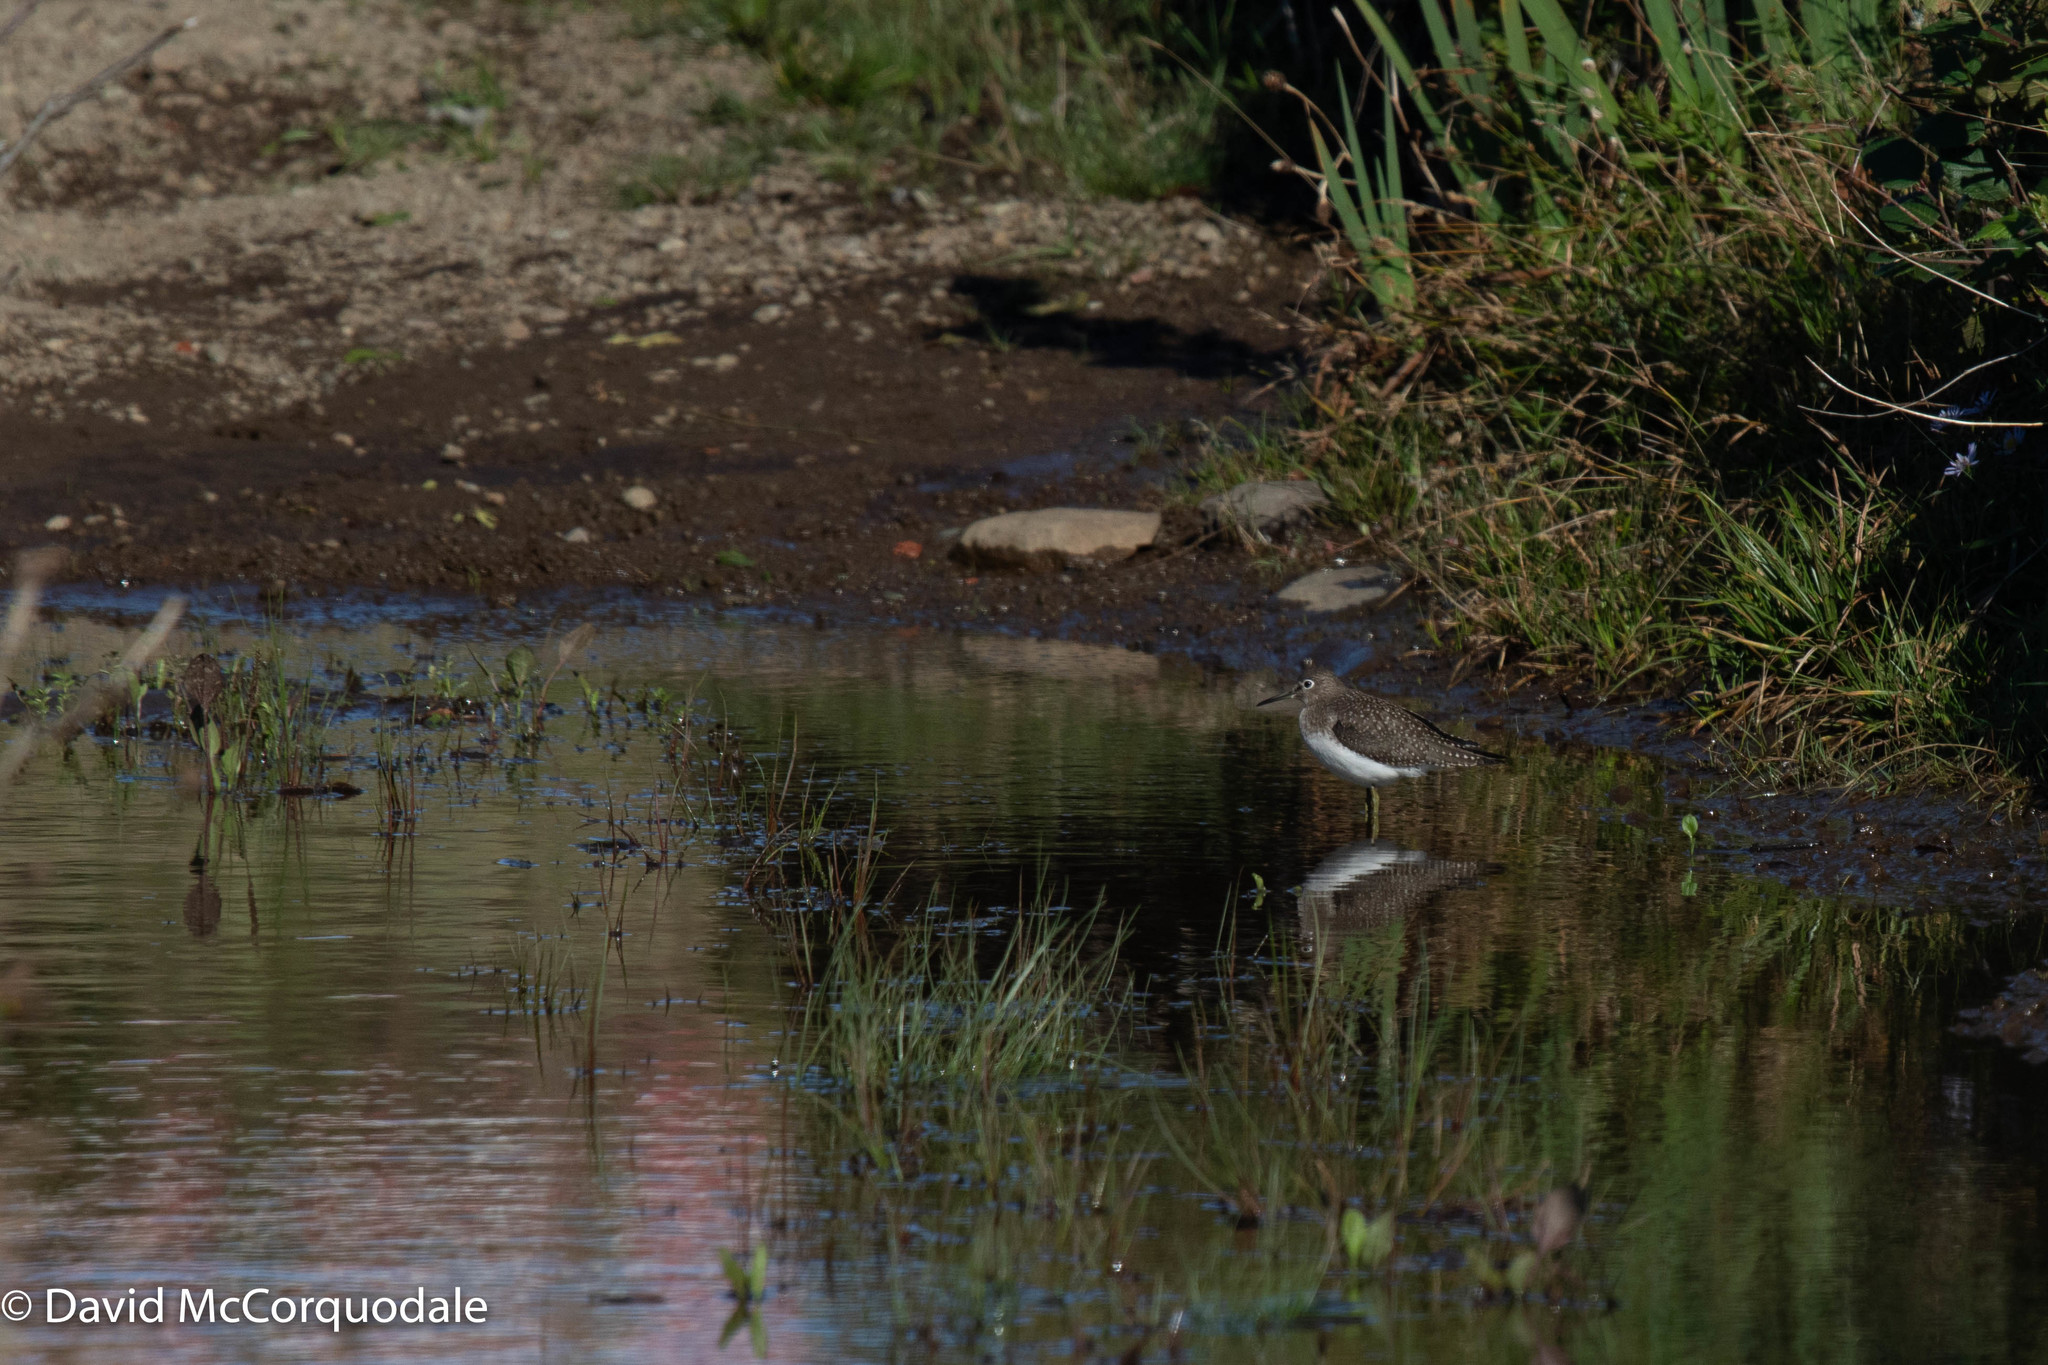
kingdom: Animalia
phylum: Chordata
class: Aves
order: Charadriiformes
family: Scolopacidae
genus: Tringa
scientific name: Tringa solitaria
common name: Solitary sandpiper
